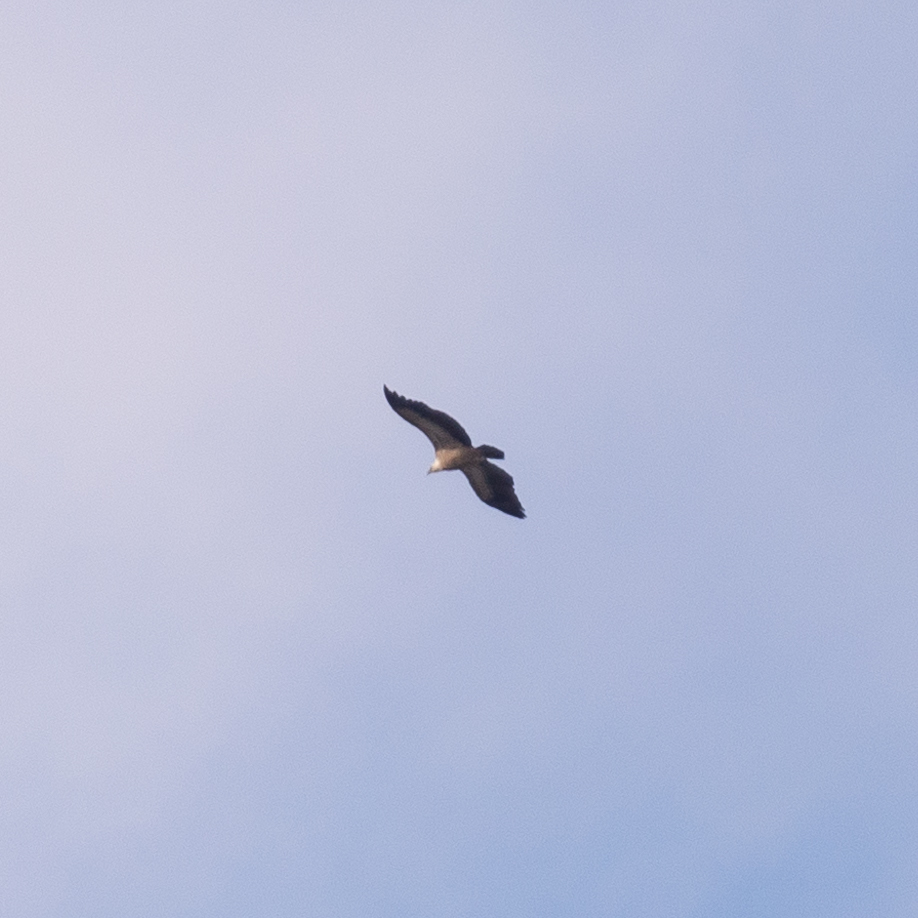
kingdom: Animalia
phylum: Chordata
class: Aves
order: Accipitriformes
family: Accipitridae
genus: Gyps
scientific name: Gyps fulvus
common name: Griffon vulture
